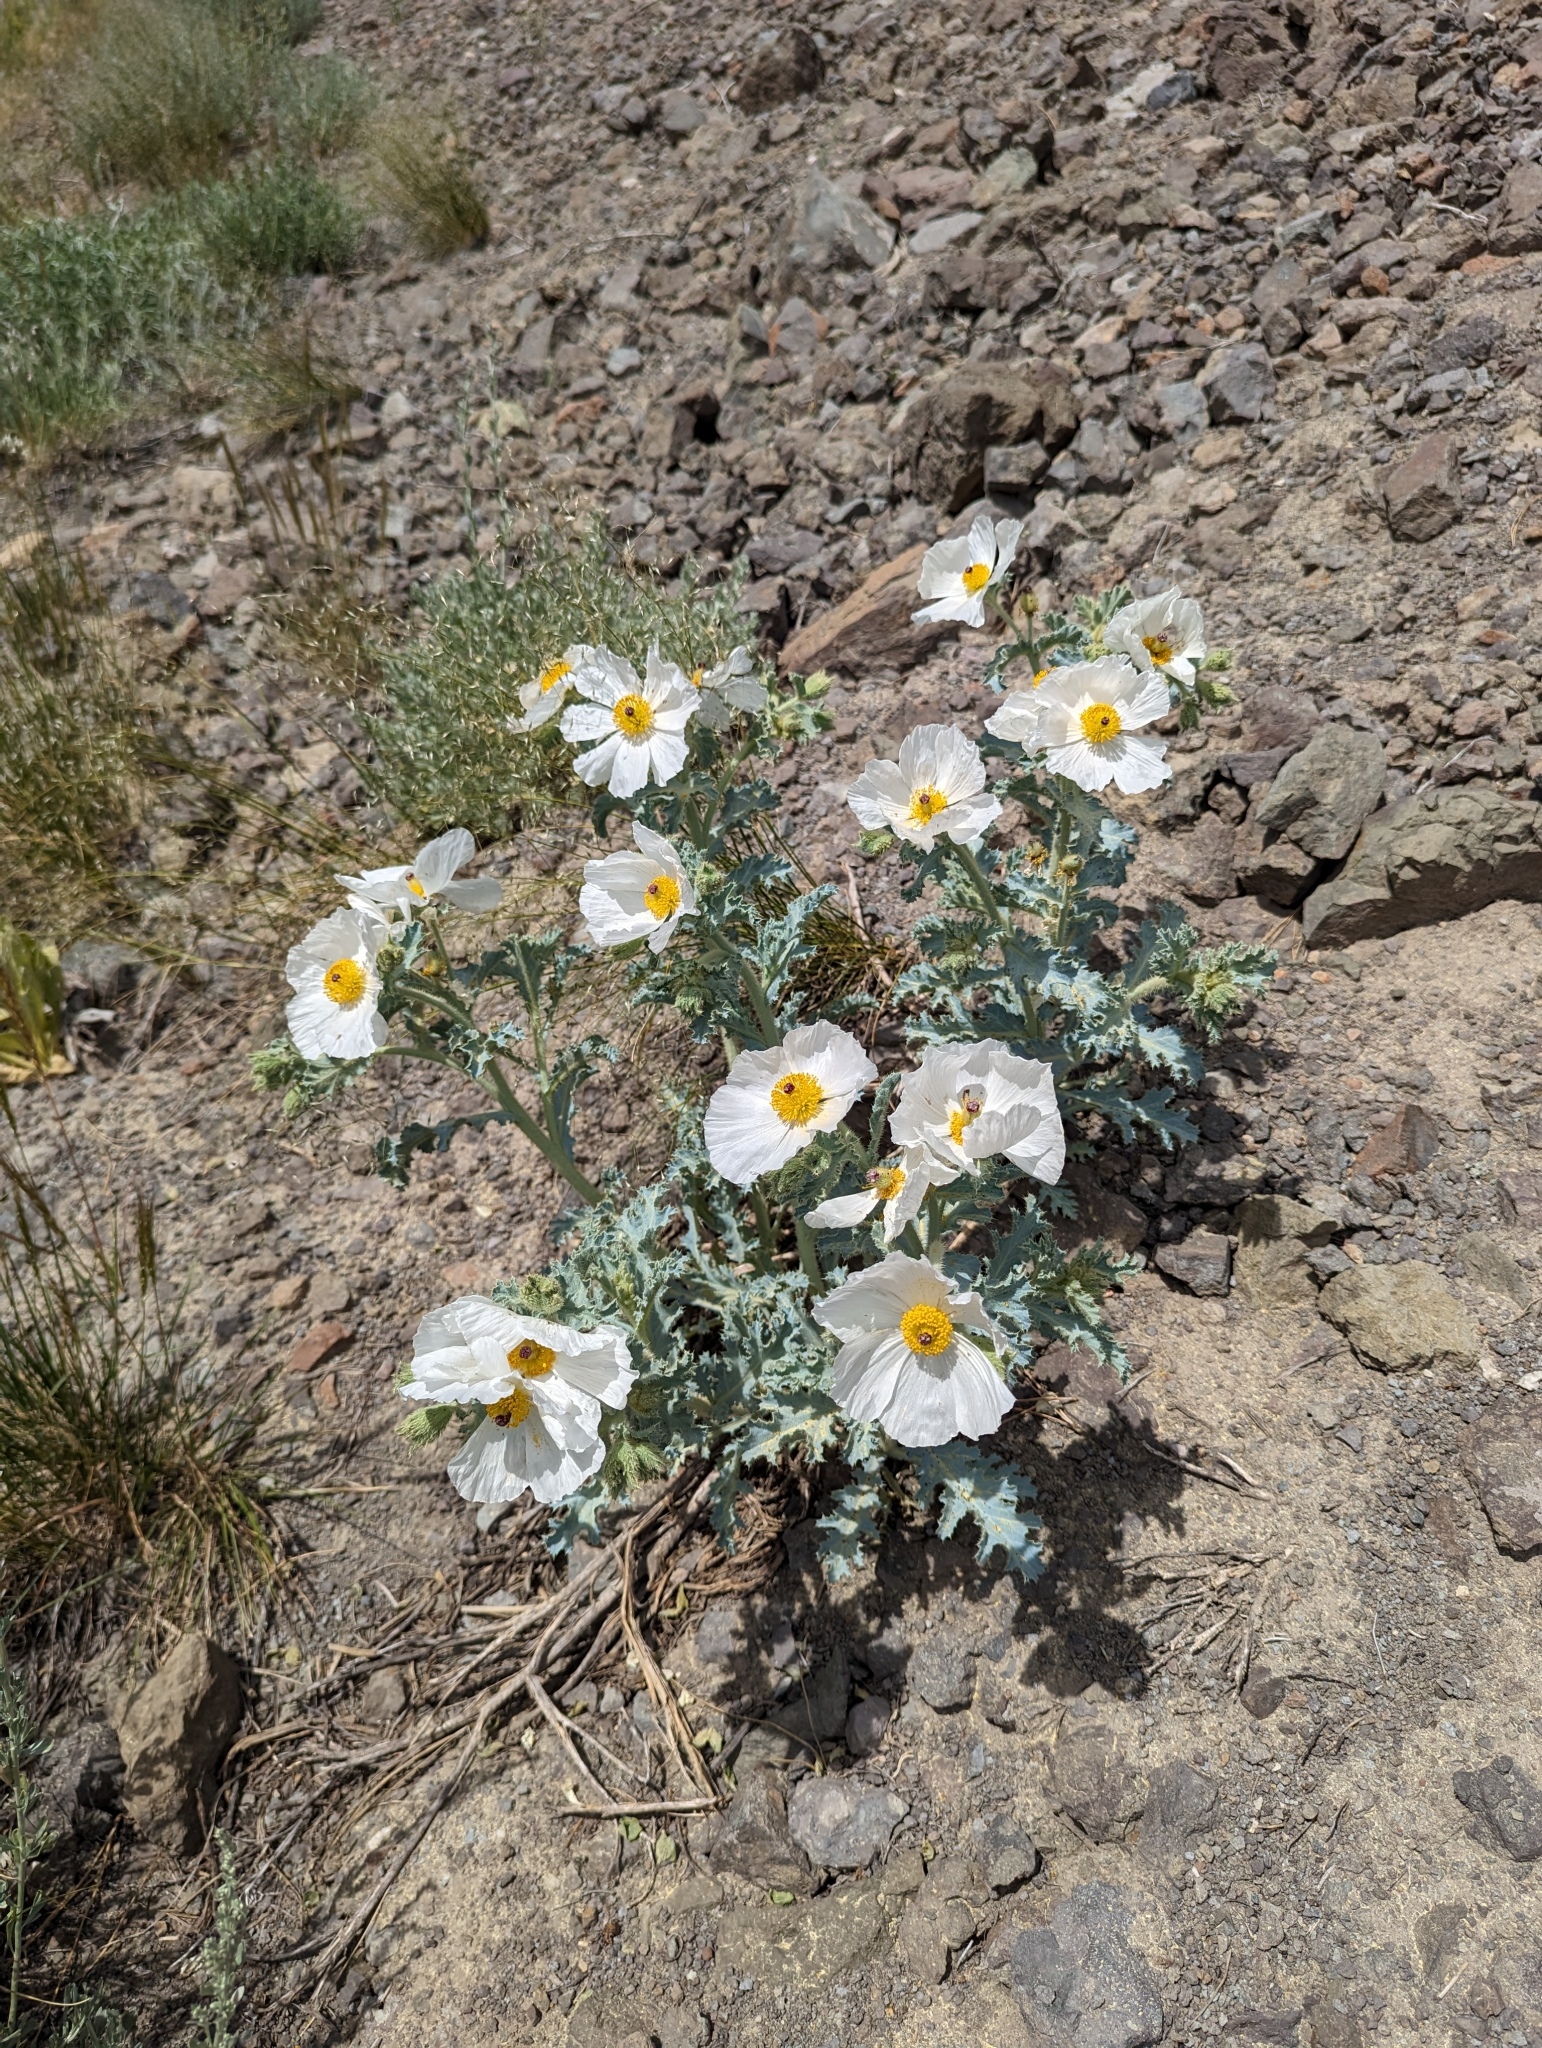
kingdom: Plantae
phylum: Tracheophyta
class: Magnoliopsida
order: Ranunculales
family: Papaveraceae
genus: Argemone
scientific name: Argemone munita
